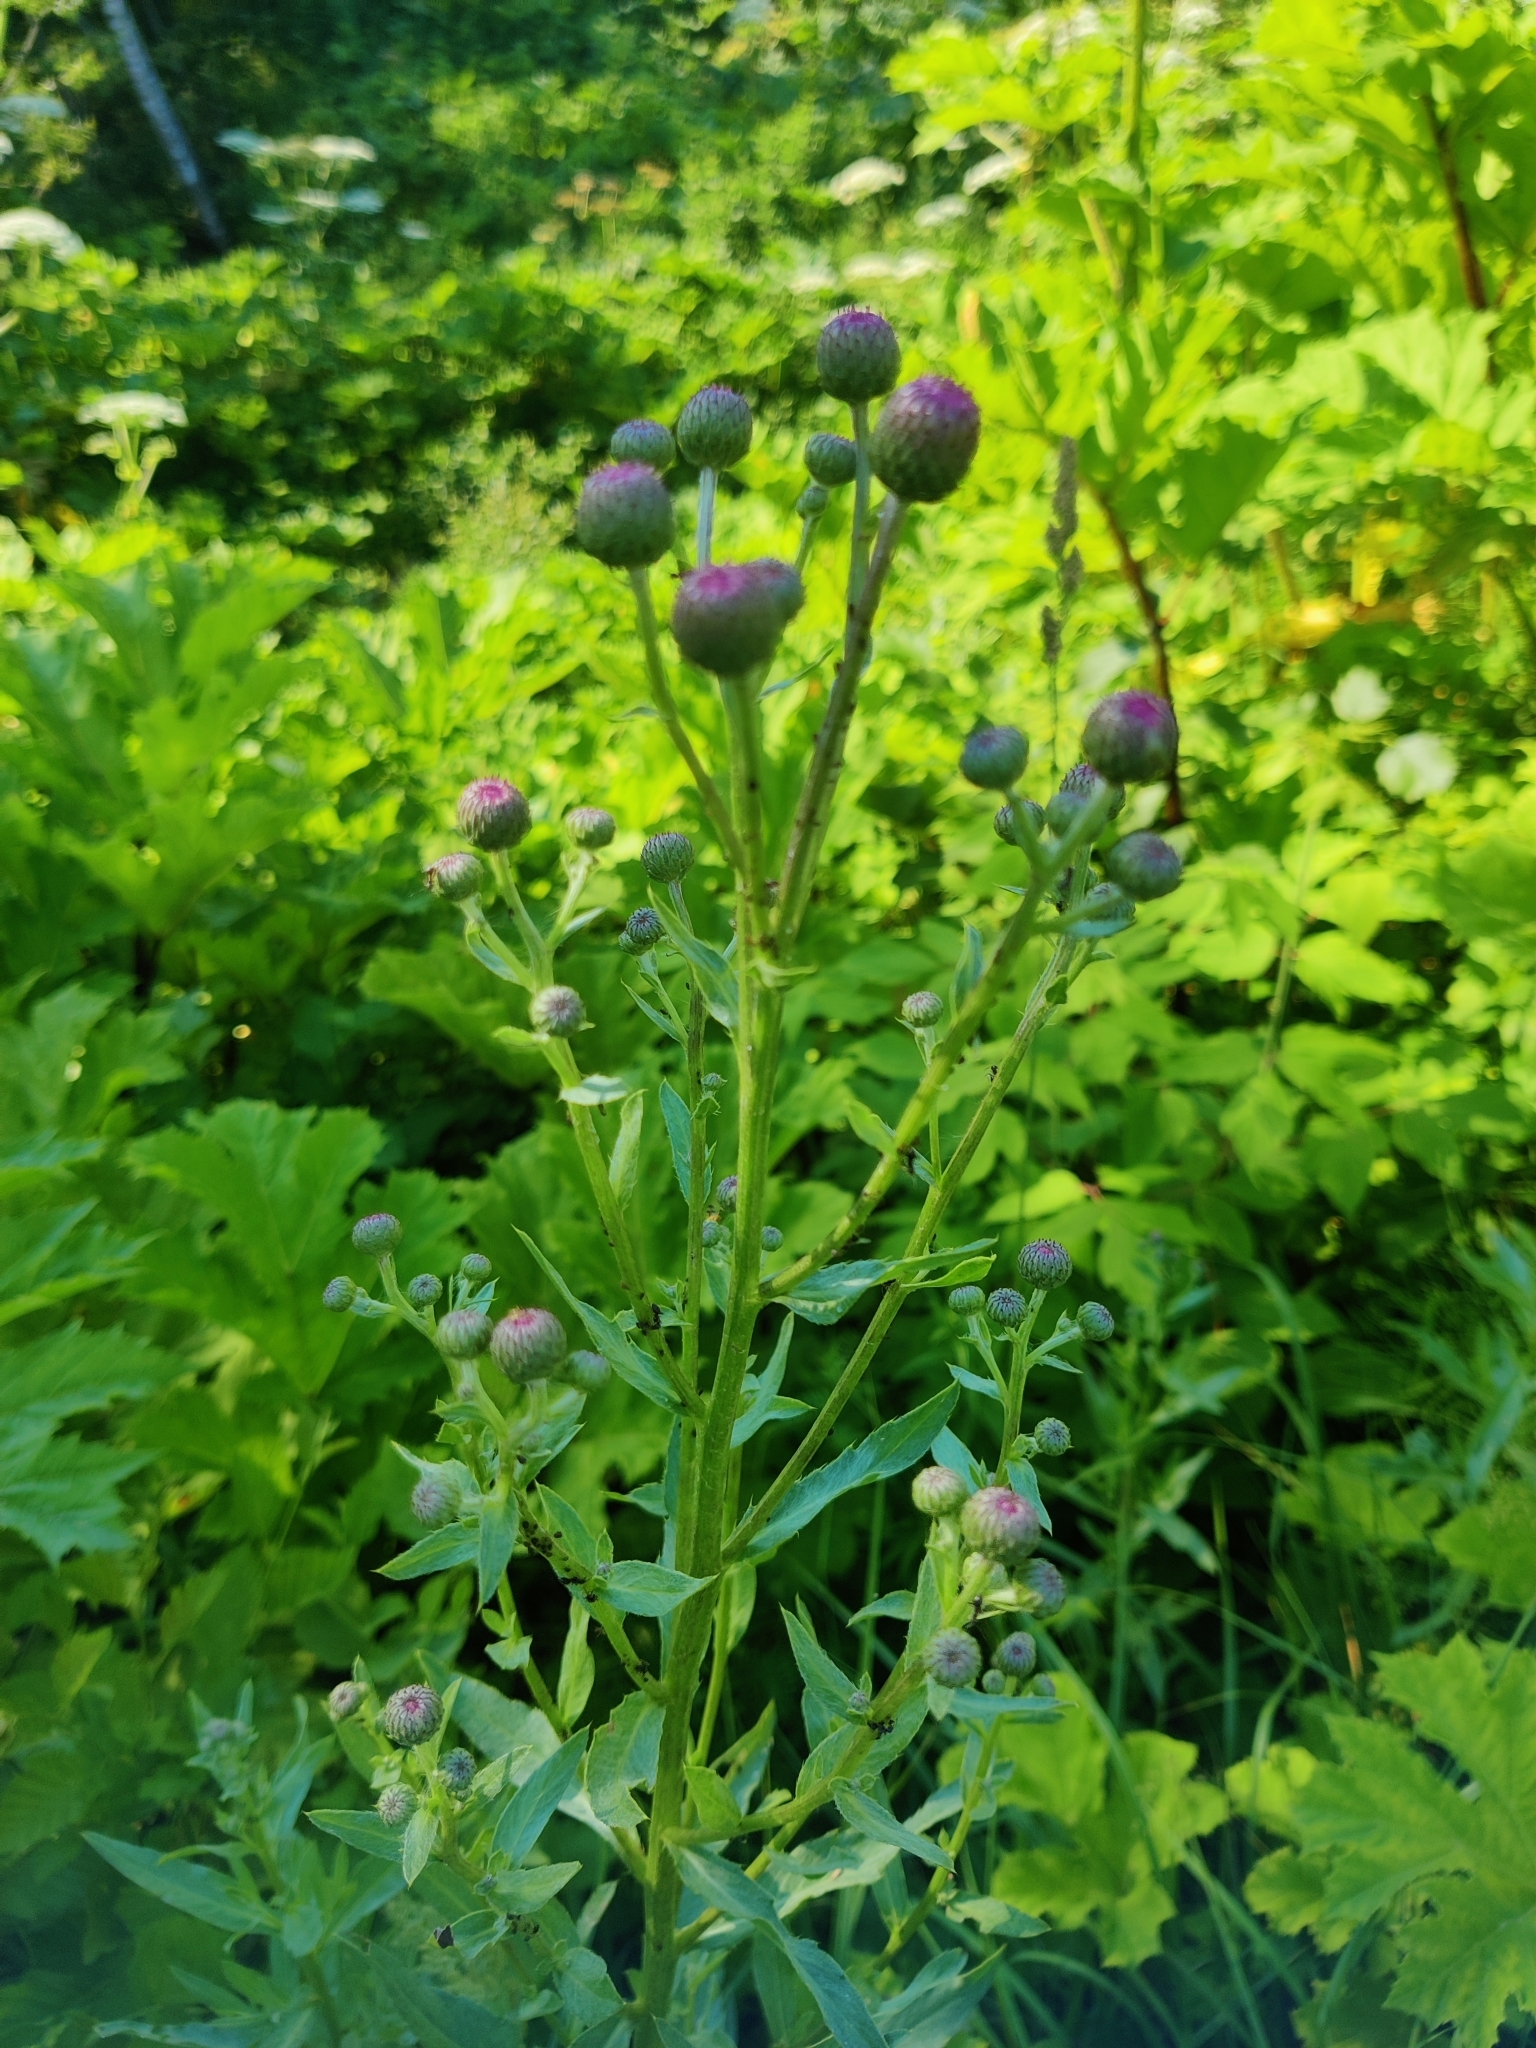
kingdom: Plantae
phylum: Tracheophyta
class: Magnoliopsida
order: Asterales
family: Asteraceae
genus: Cirsium
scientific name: Cirsium arvense
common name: Creeping thistle
